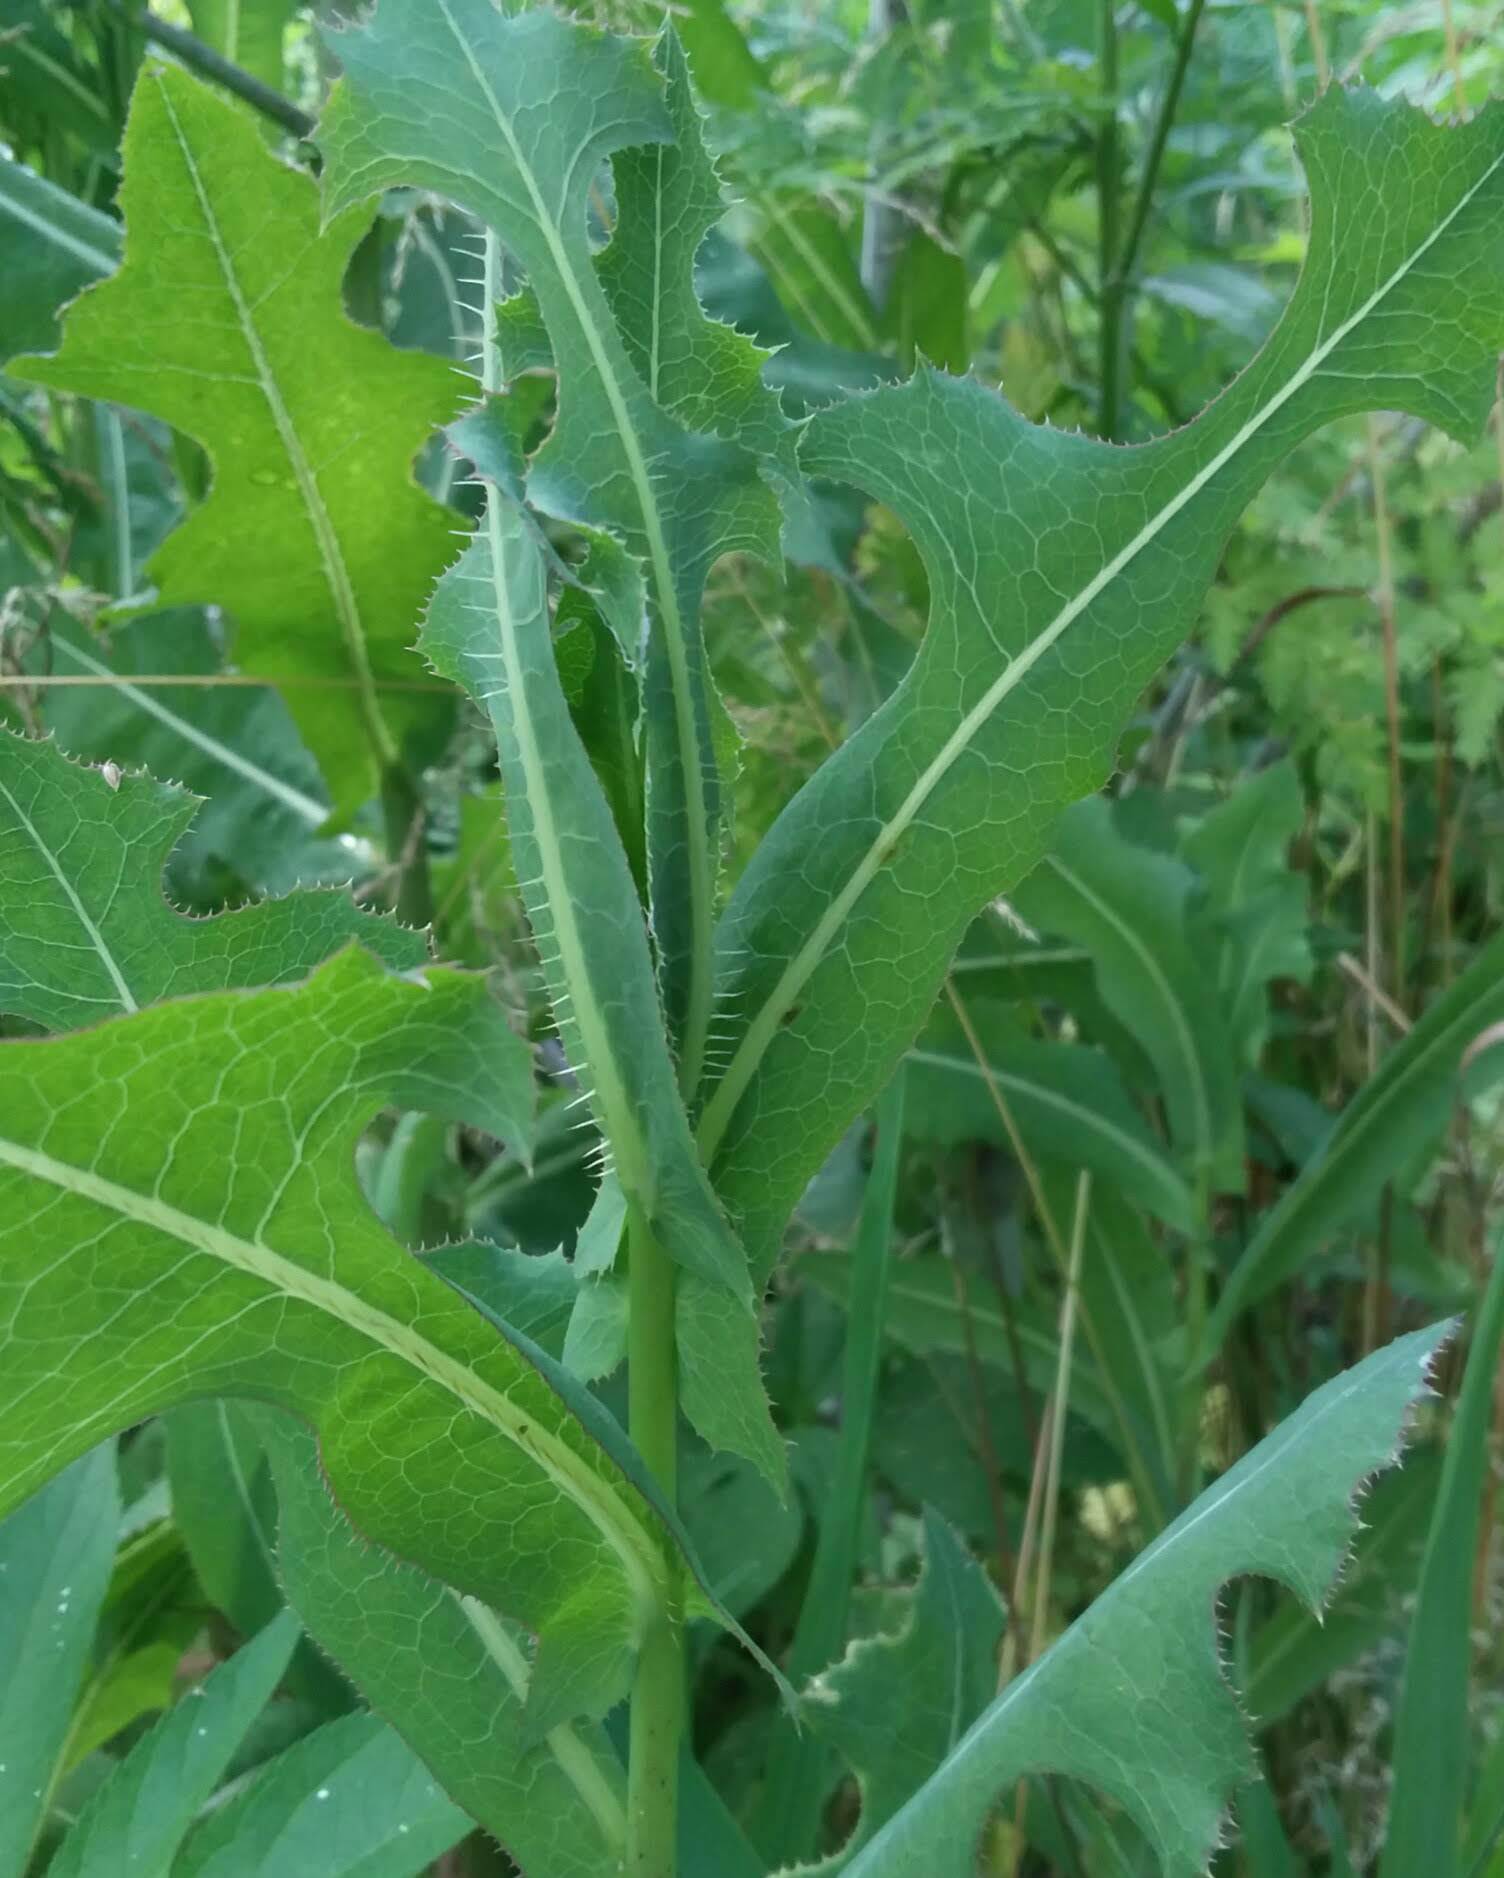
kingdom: Plantae
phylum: Tracheophyta
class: Magnoliopsida
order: Asterales
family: Asteraceae
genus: Lactuca
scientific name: Lactuca serriola
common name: Prickly lettuce
